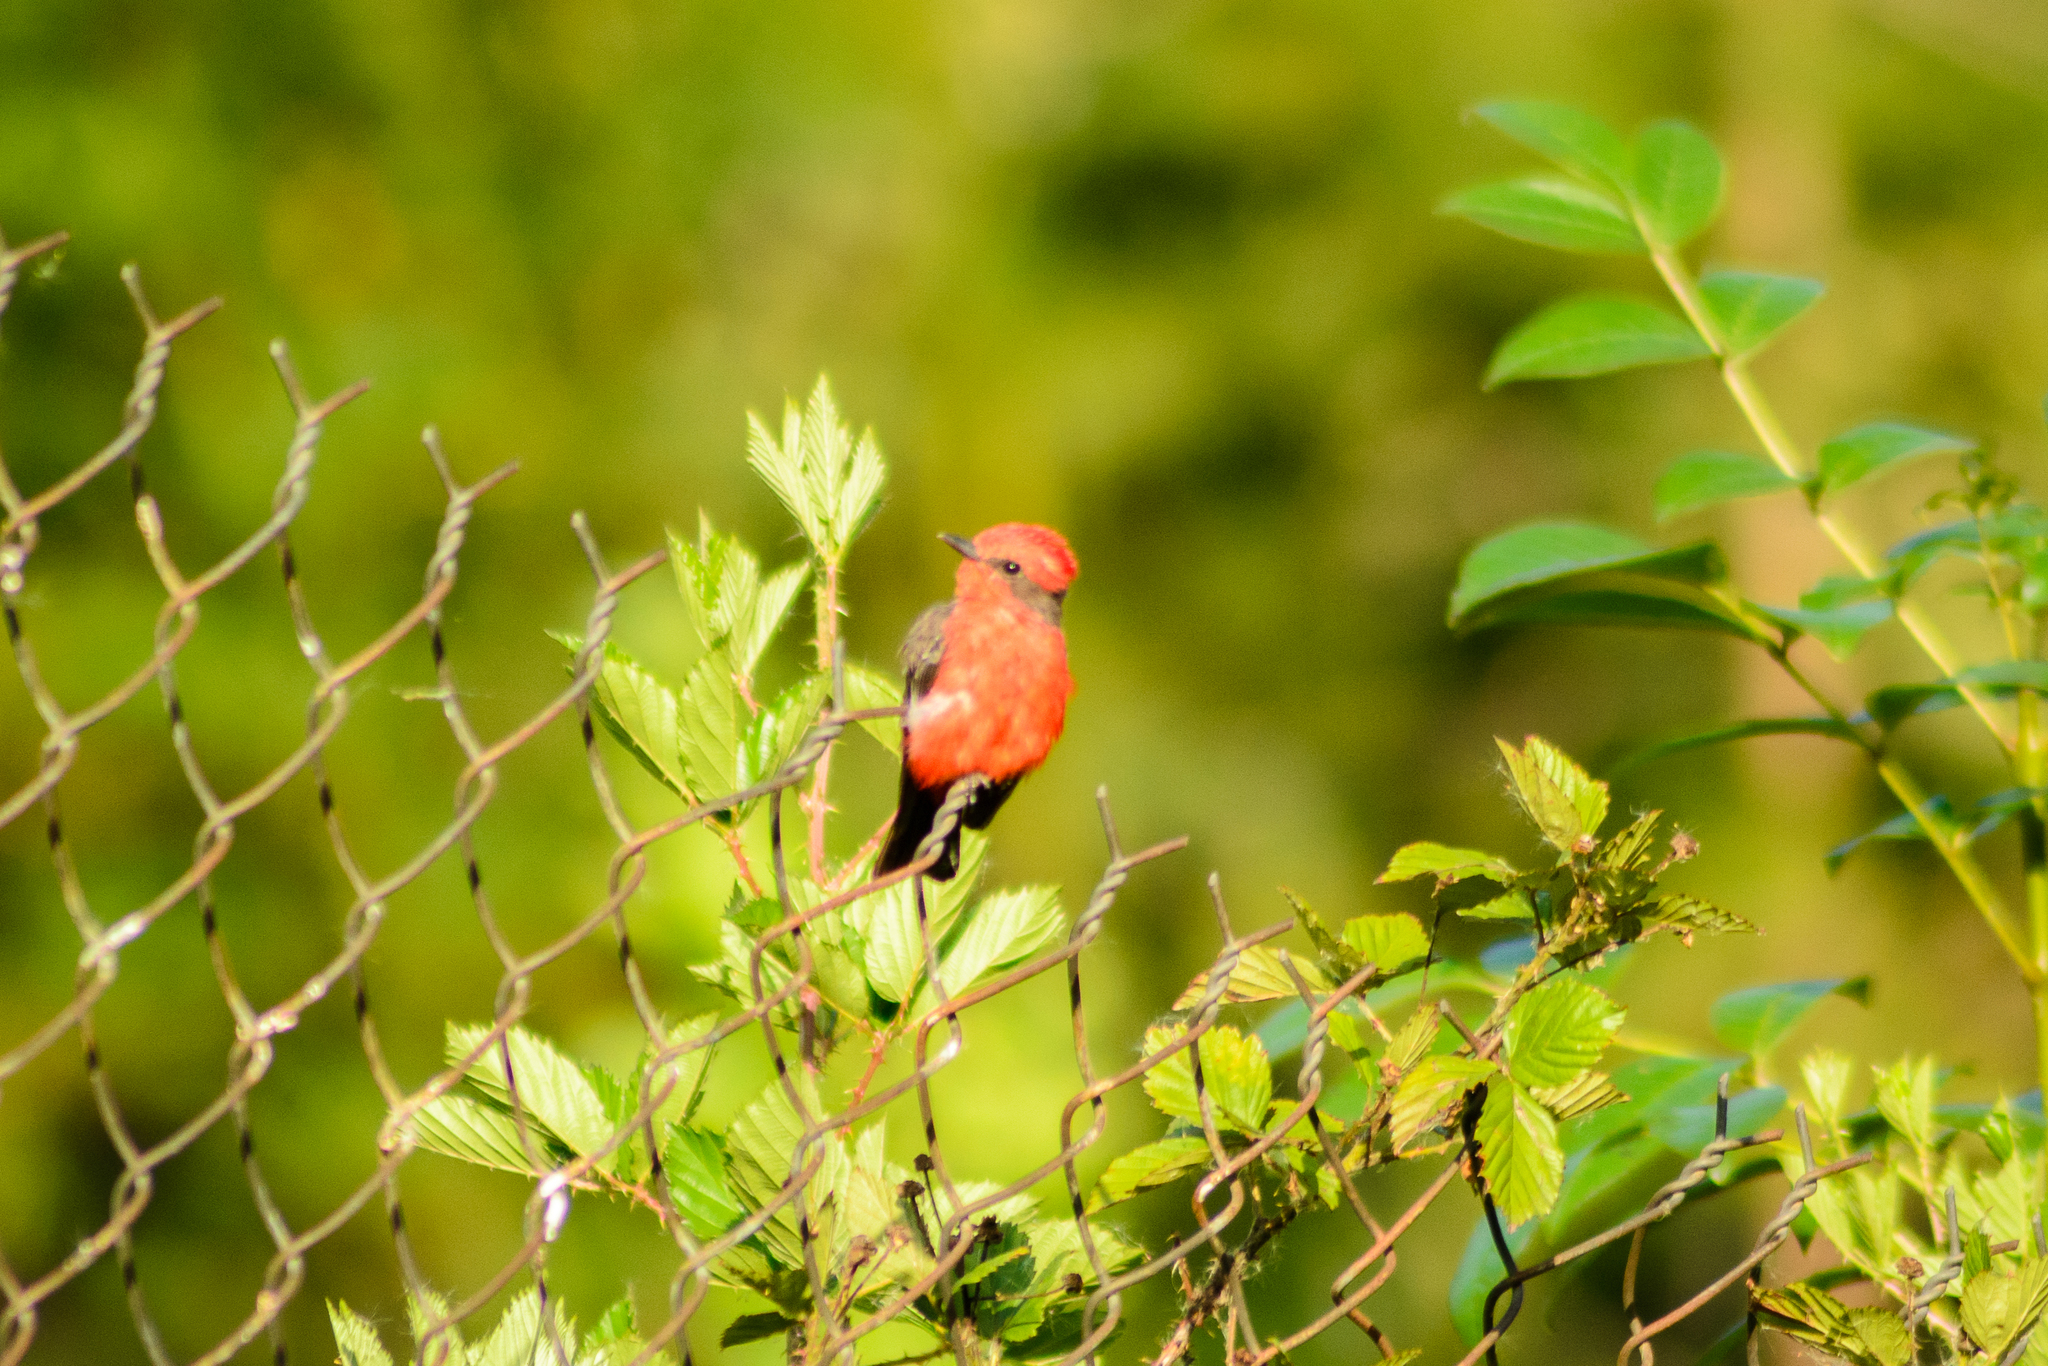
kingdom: Animalia
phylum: Chordata
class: Aves
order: Passeriformes
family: Tyrannidae
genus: Pyrocephalus
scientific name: Pyrocephalus rubinus
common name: Vermilion flycatcher
